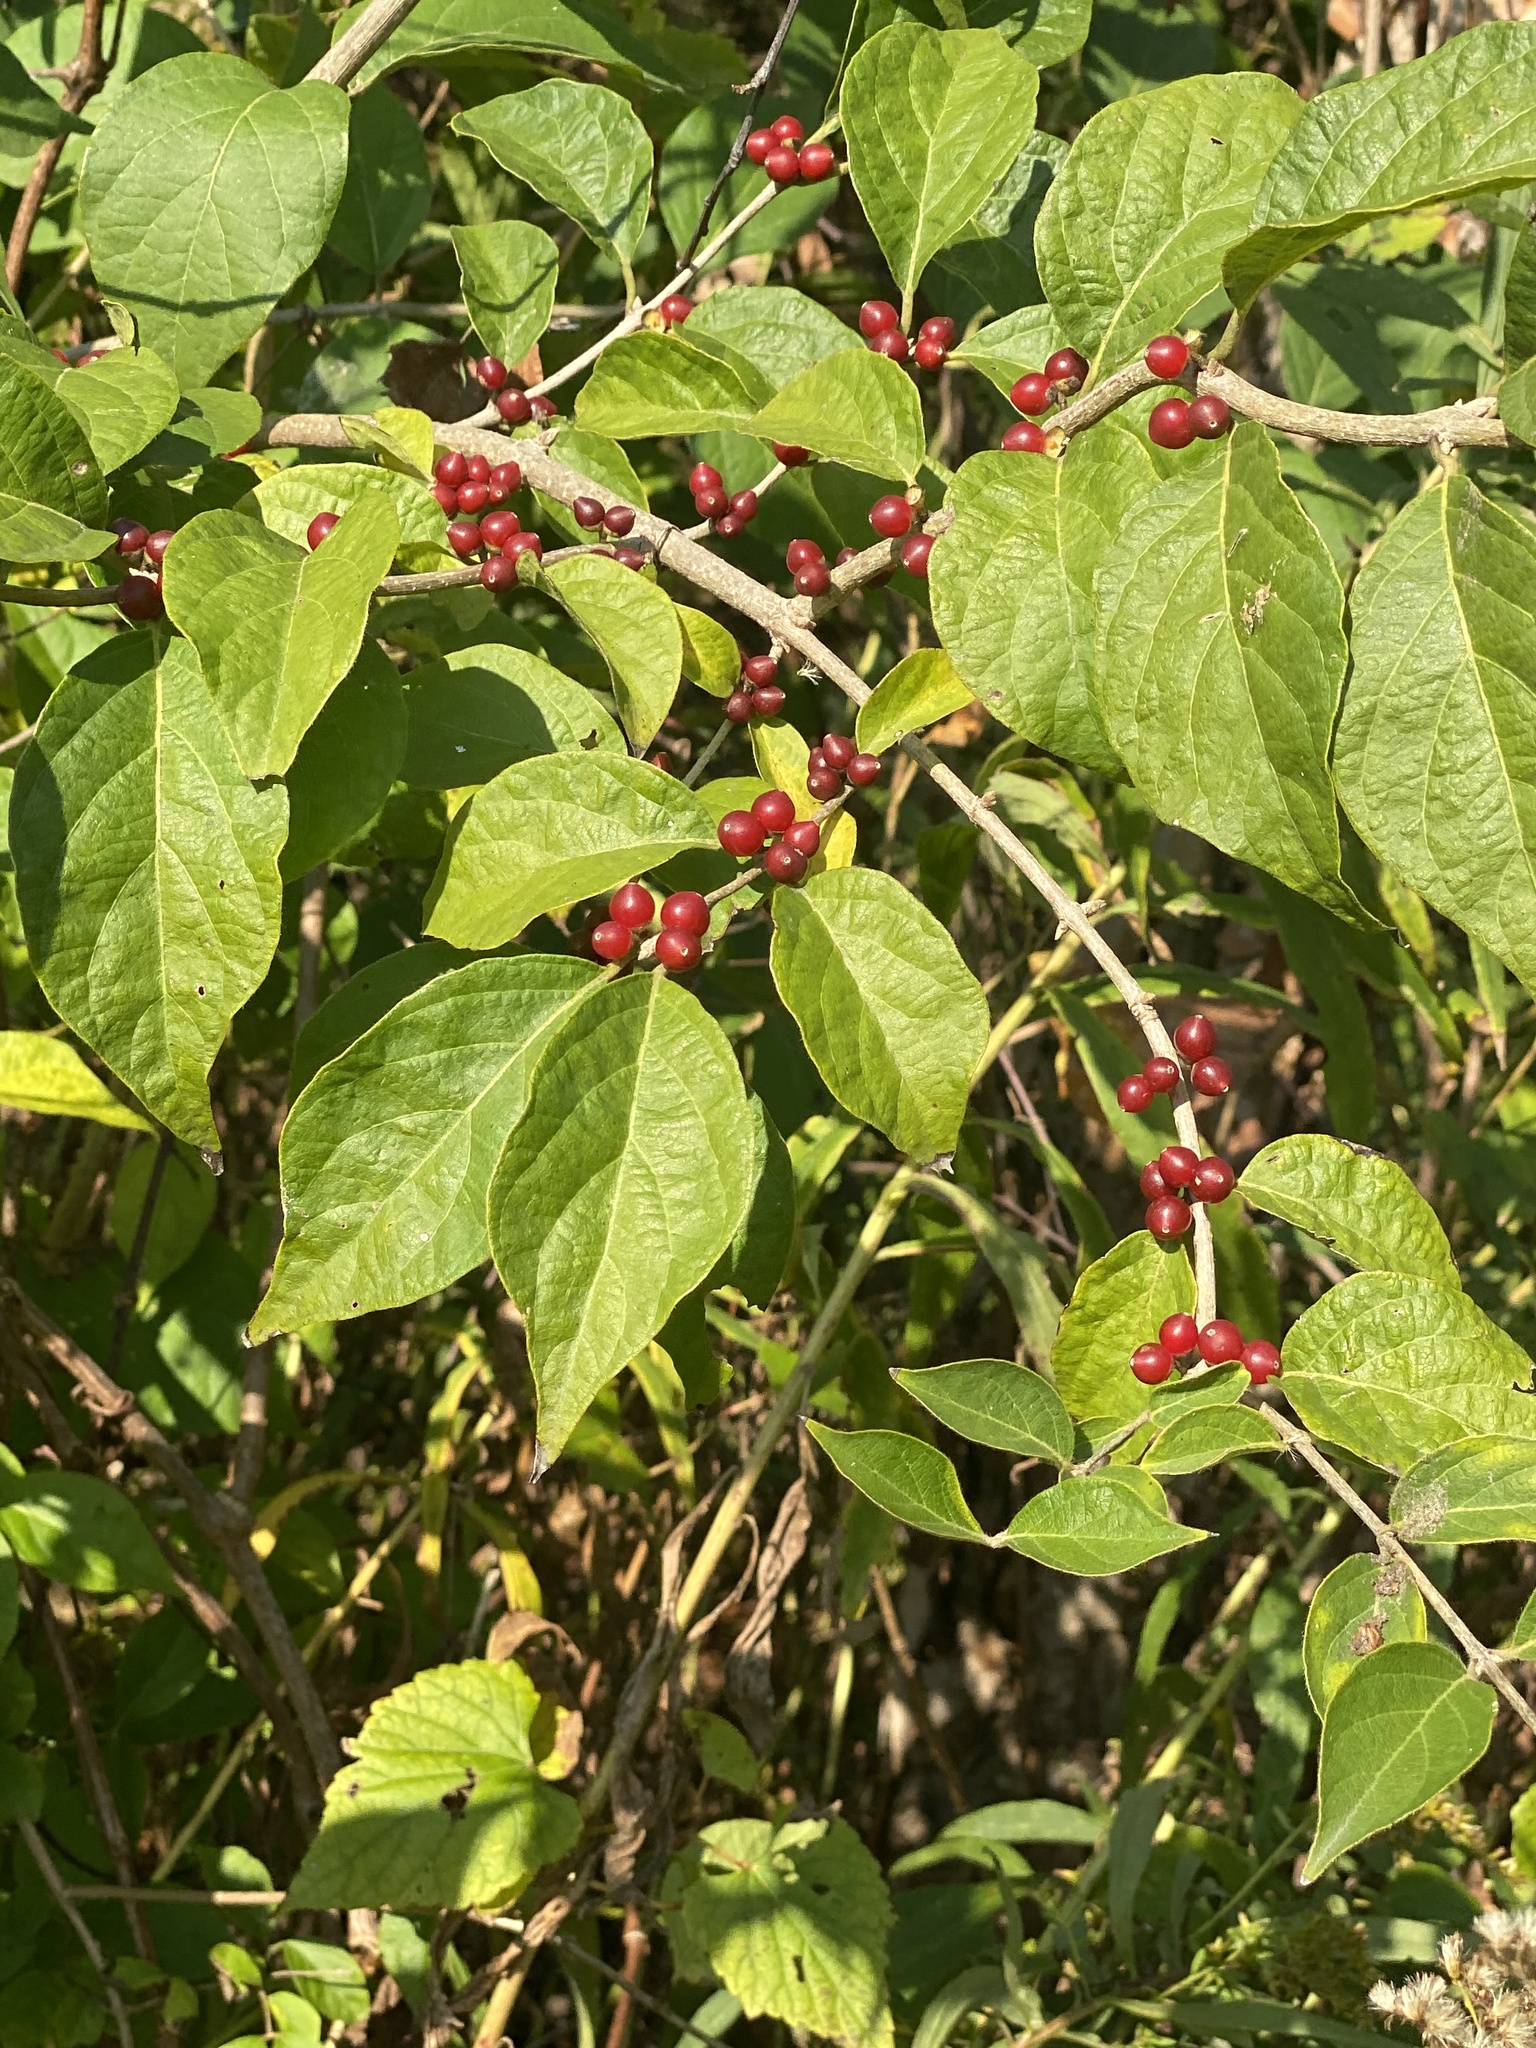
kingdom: Plantae
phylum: Tracheophyta
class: Magnoliopsida
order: Dipsacales
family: Caprifoliaceae
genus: Lonicera
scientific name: Lonicera maackii
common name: Amur honeysuckle
